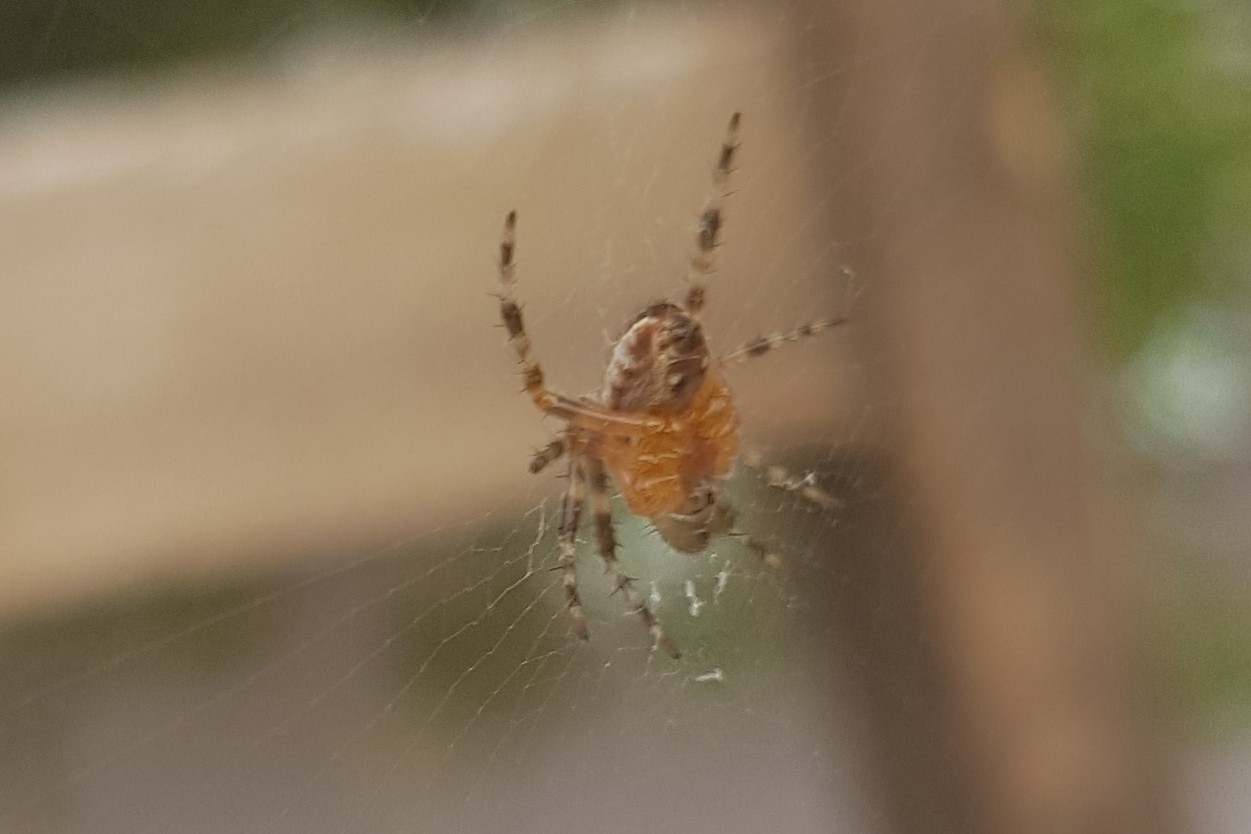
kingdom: Animalia
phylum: Arthropoda
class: Arachnida
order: Araneae
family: Araneidae
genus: Araneus
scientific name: Araneus diadematus
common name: Cross orbweaver
